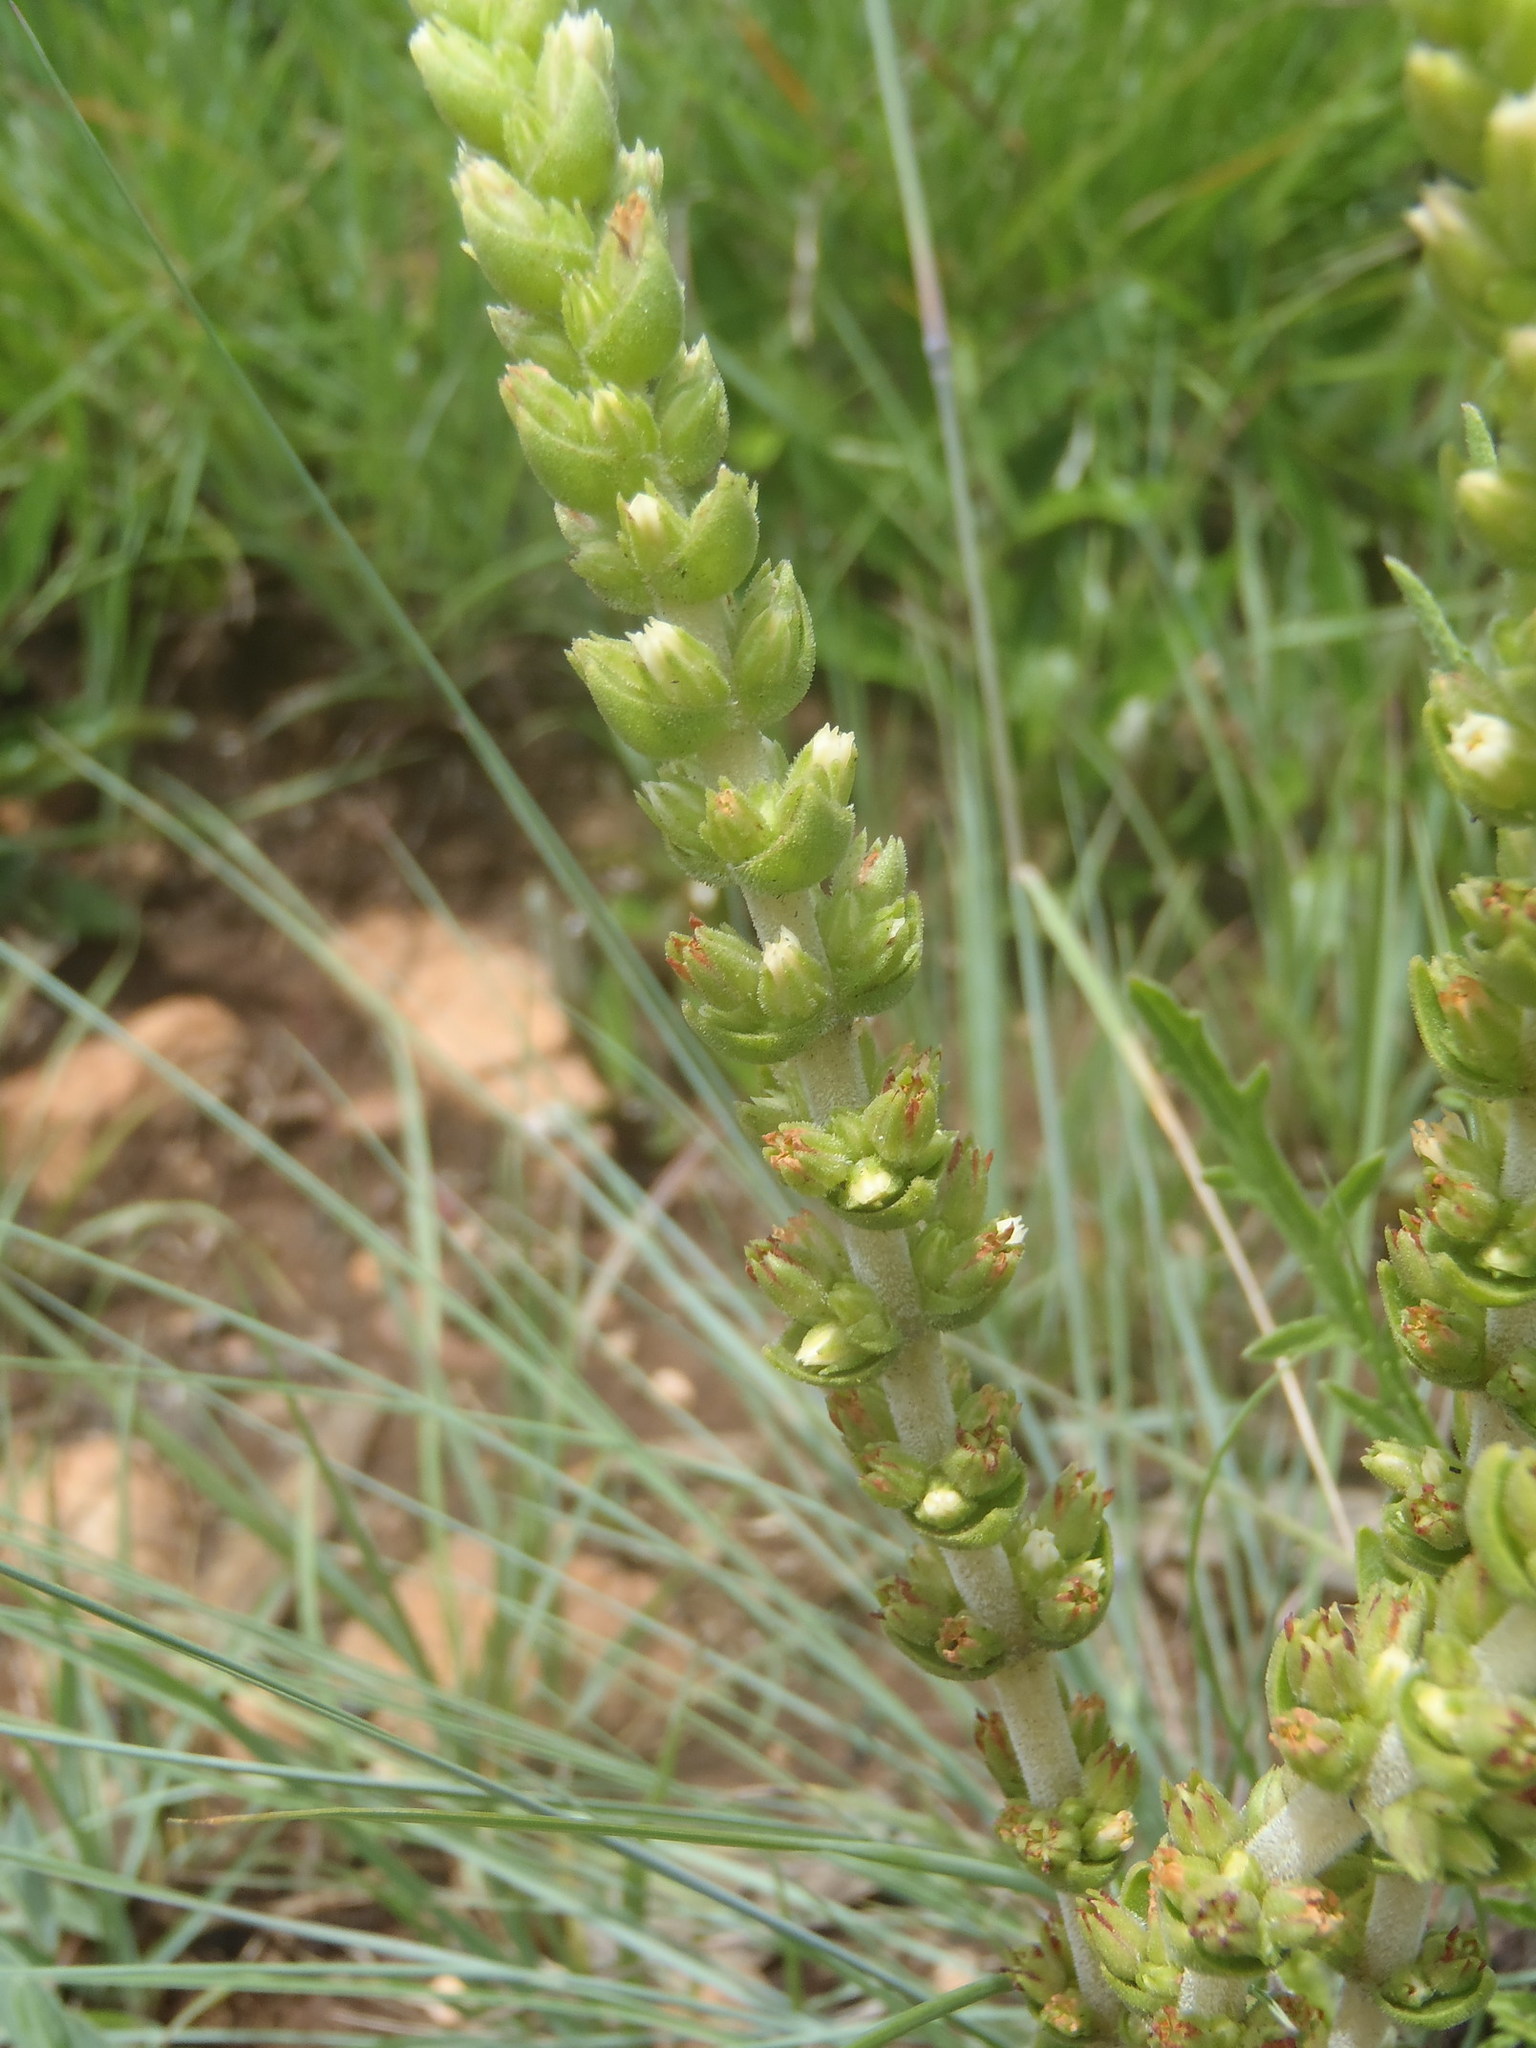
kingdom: Plantae
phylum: Tracheophyta
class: Magnoliopsida
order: Saxifragales
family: Crassulaceae
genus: Crassula
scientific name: Crassula nodulosa
